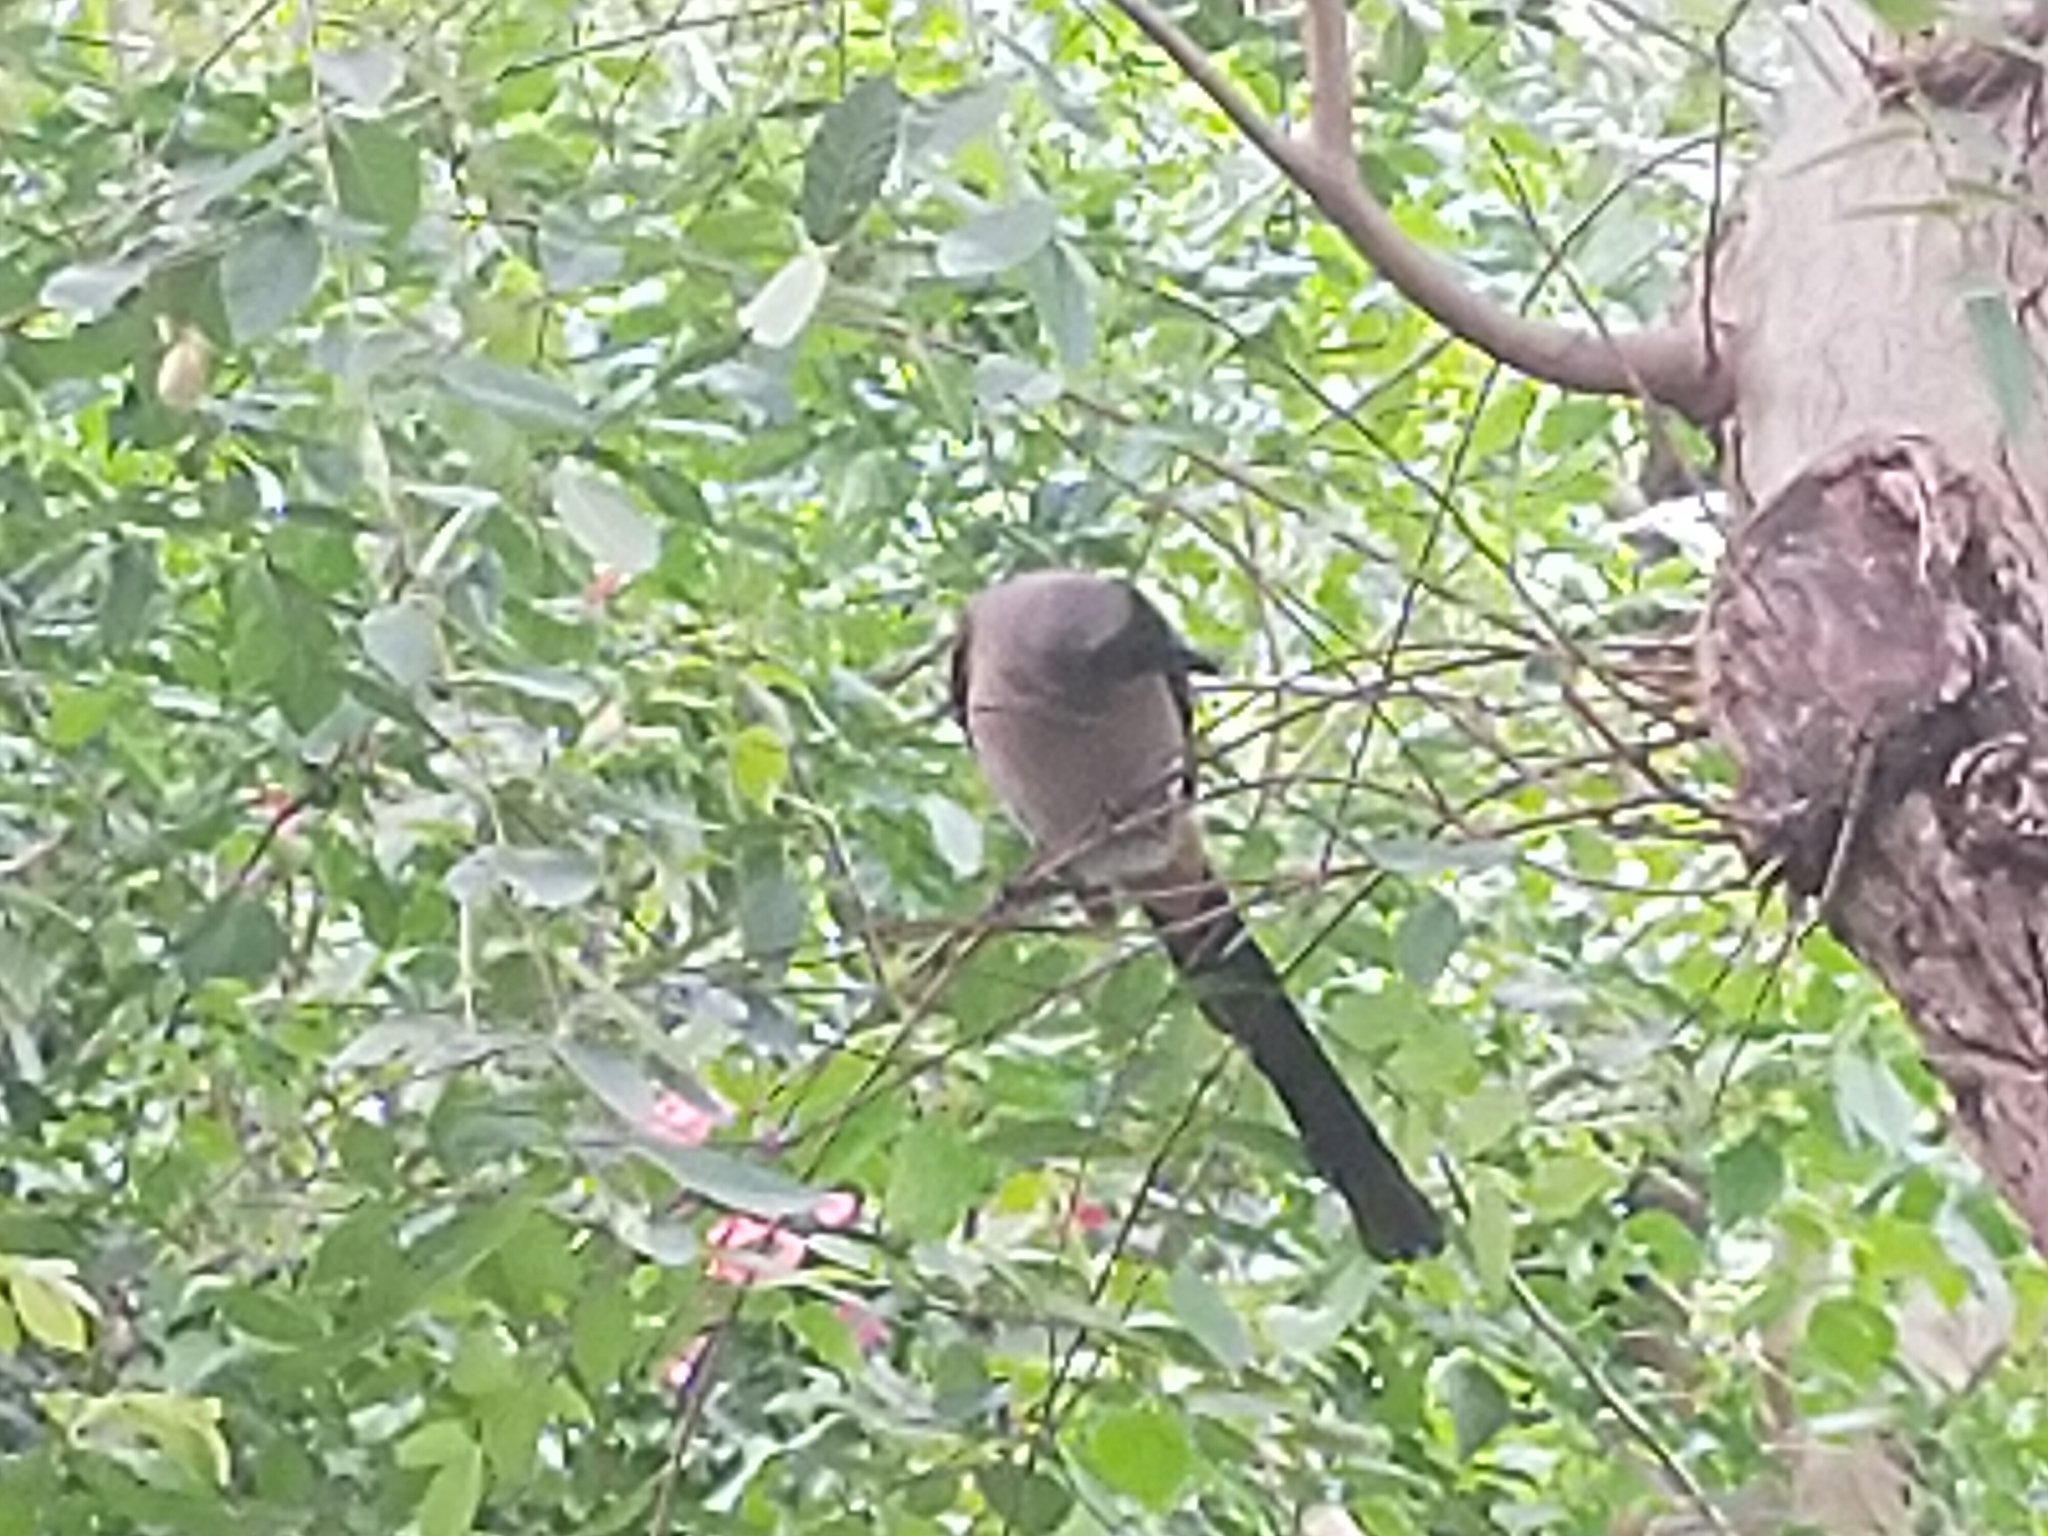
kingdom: Animalia
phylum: Chordata
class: Aves
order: Passeriformes
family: Corvidae
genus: Dendrocitta
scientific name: Dendrocitta formosae
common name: Grey treepie
